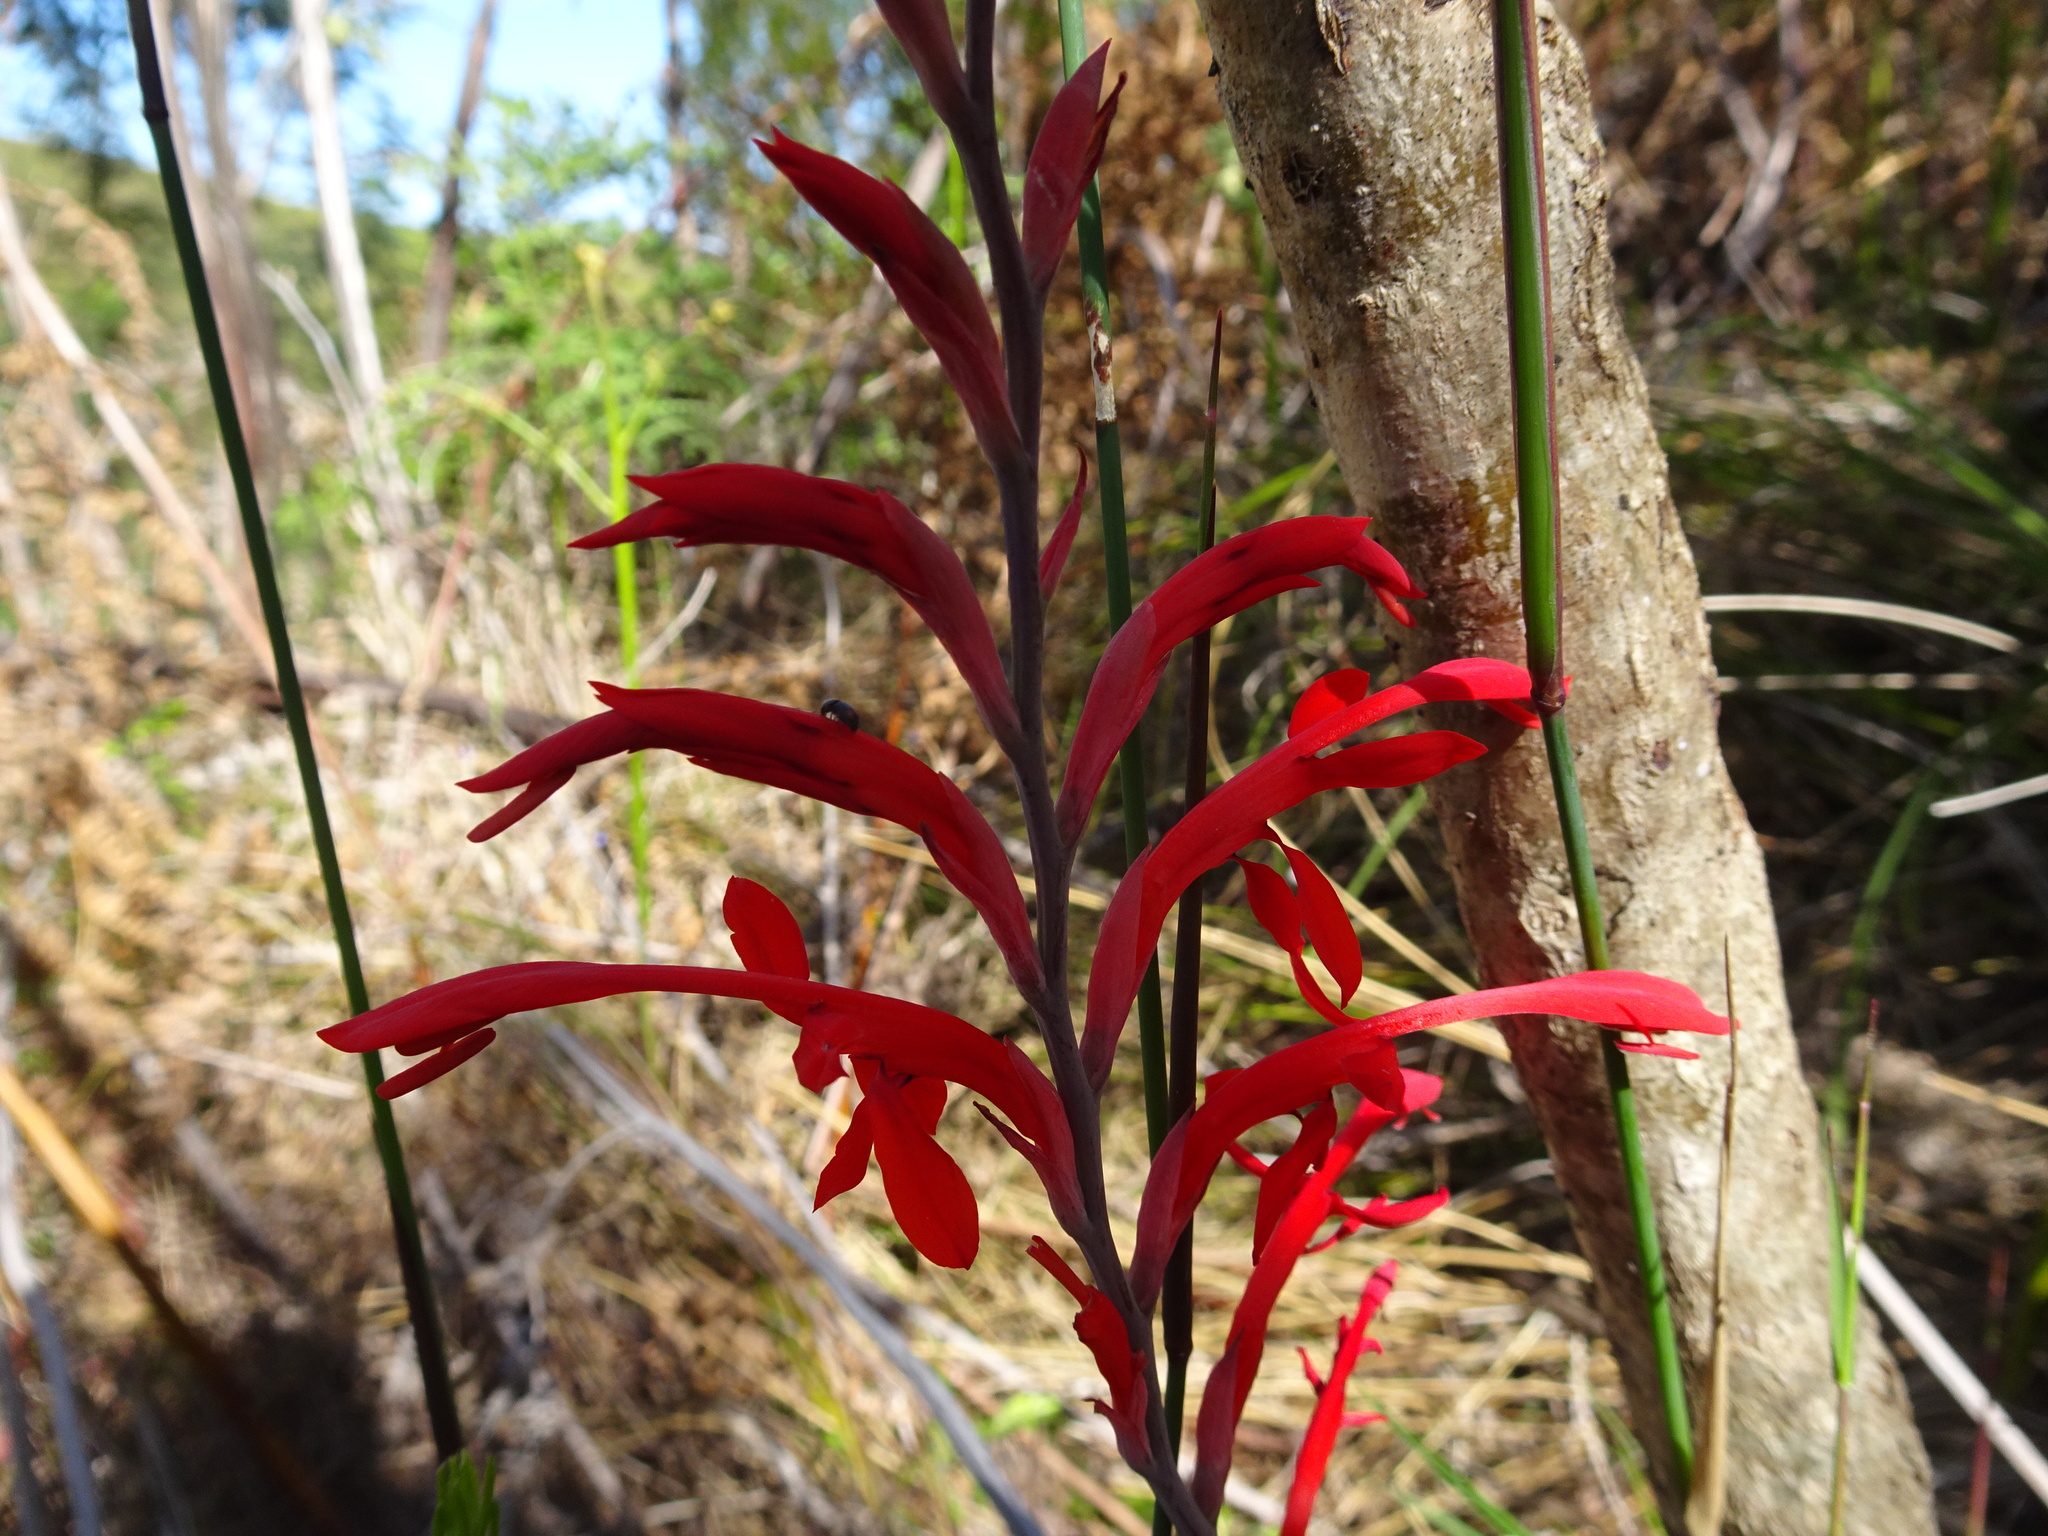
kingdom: Plantae
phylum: Tracheophyta
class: Liliopsida
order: Asparagales
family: Iridaceae
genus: Tritoniopsis
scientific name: Tritoniopsis caffra
